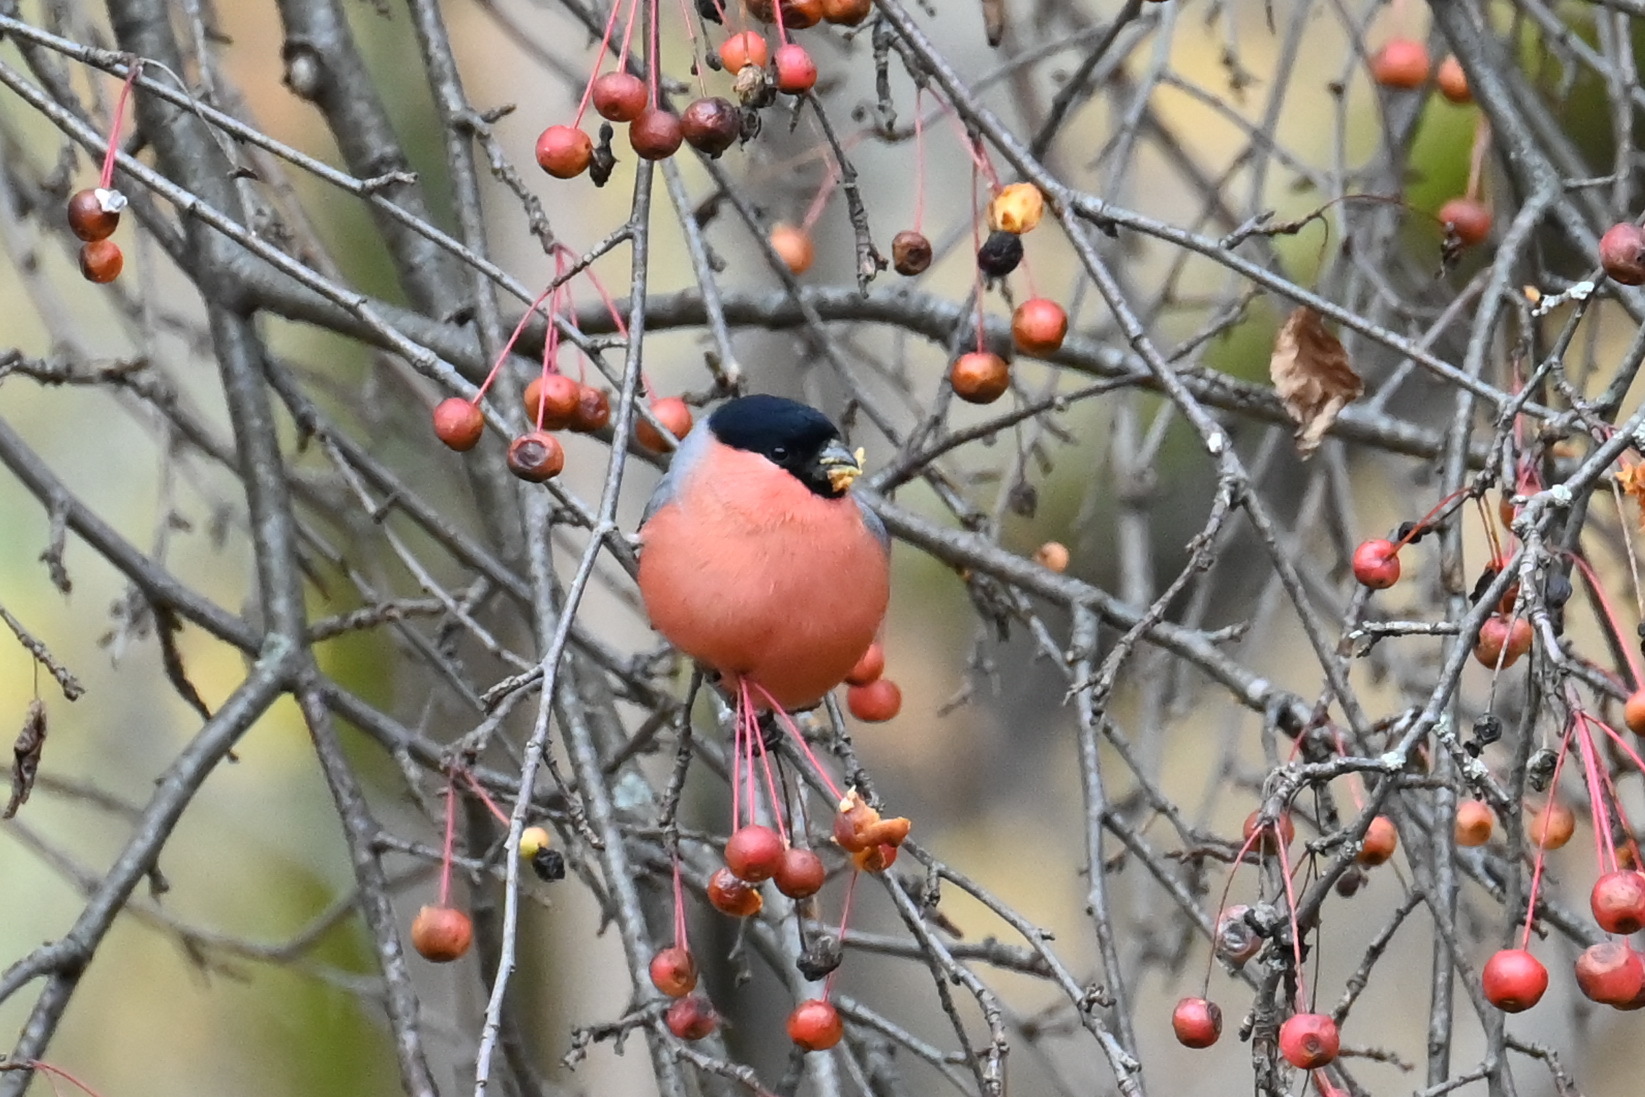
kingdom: Animalia
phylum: Chordata
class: Aves
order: Passeriformes
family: Fringillidae
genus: Pyrrhula
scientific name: Pyrrhula pyrrhula
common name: Eurasian bullfinch
